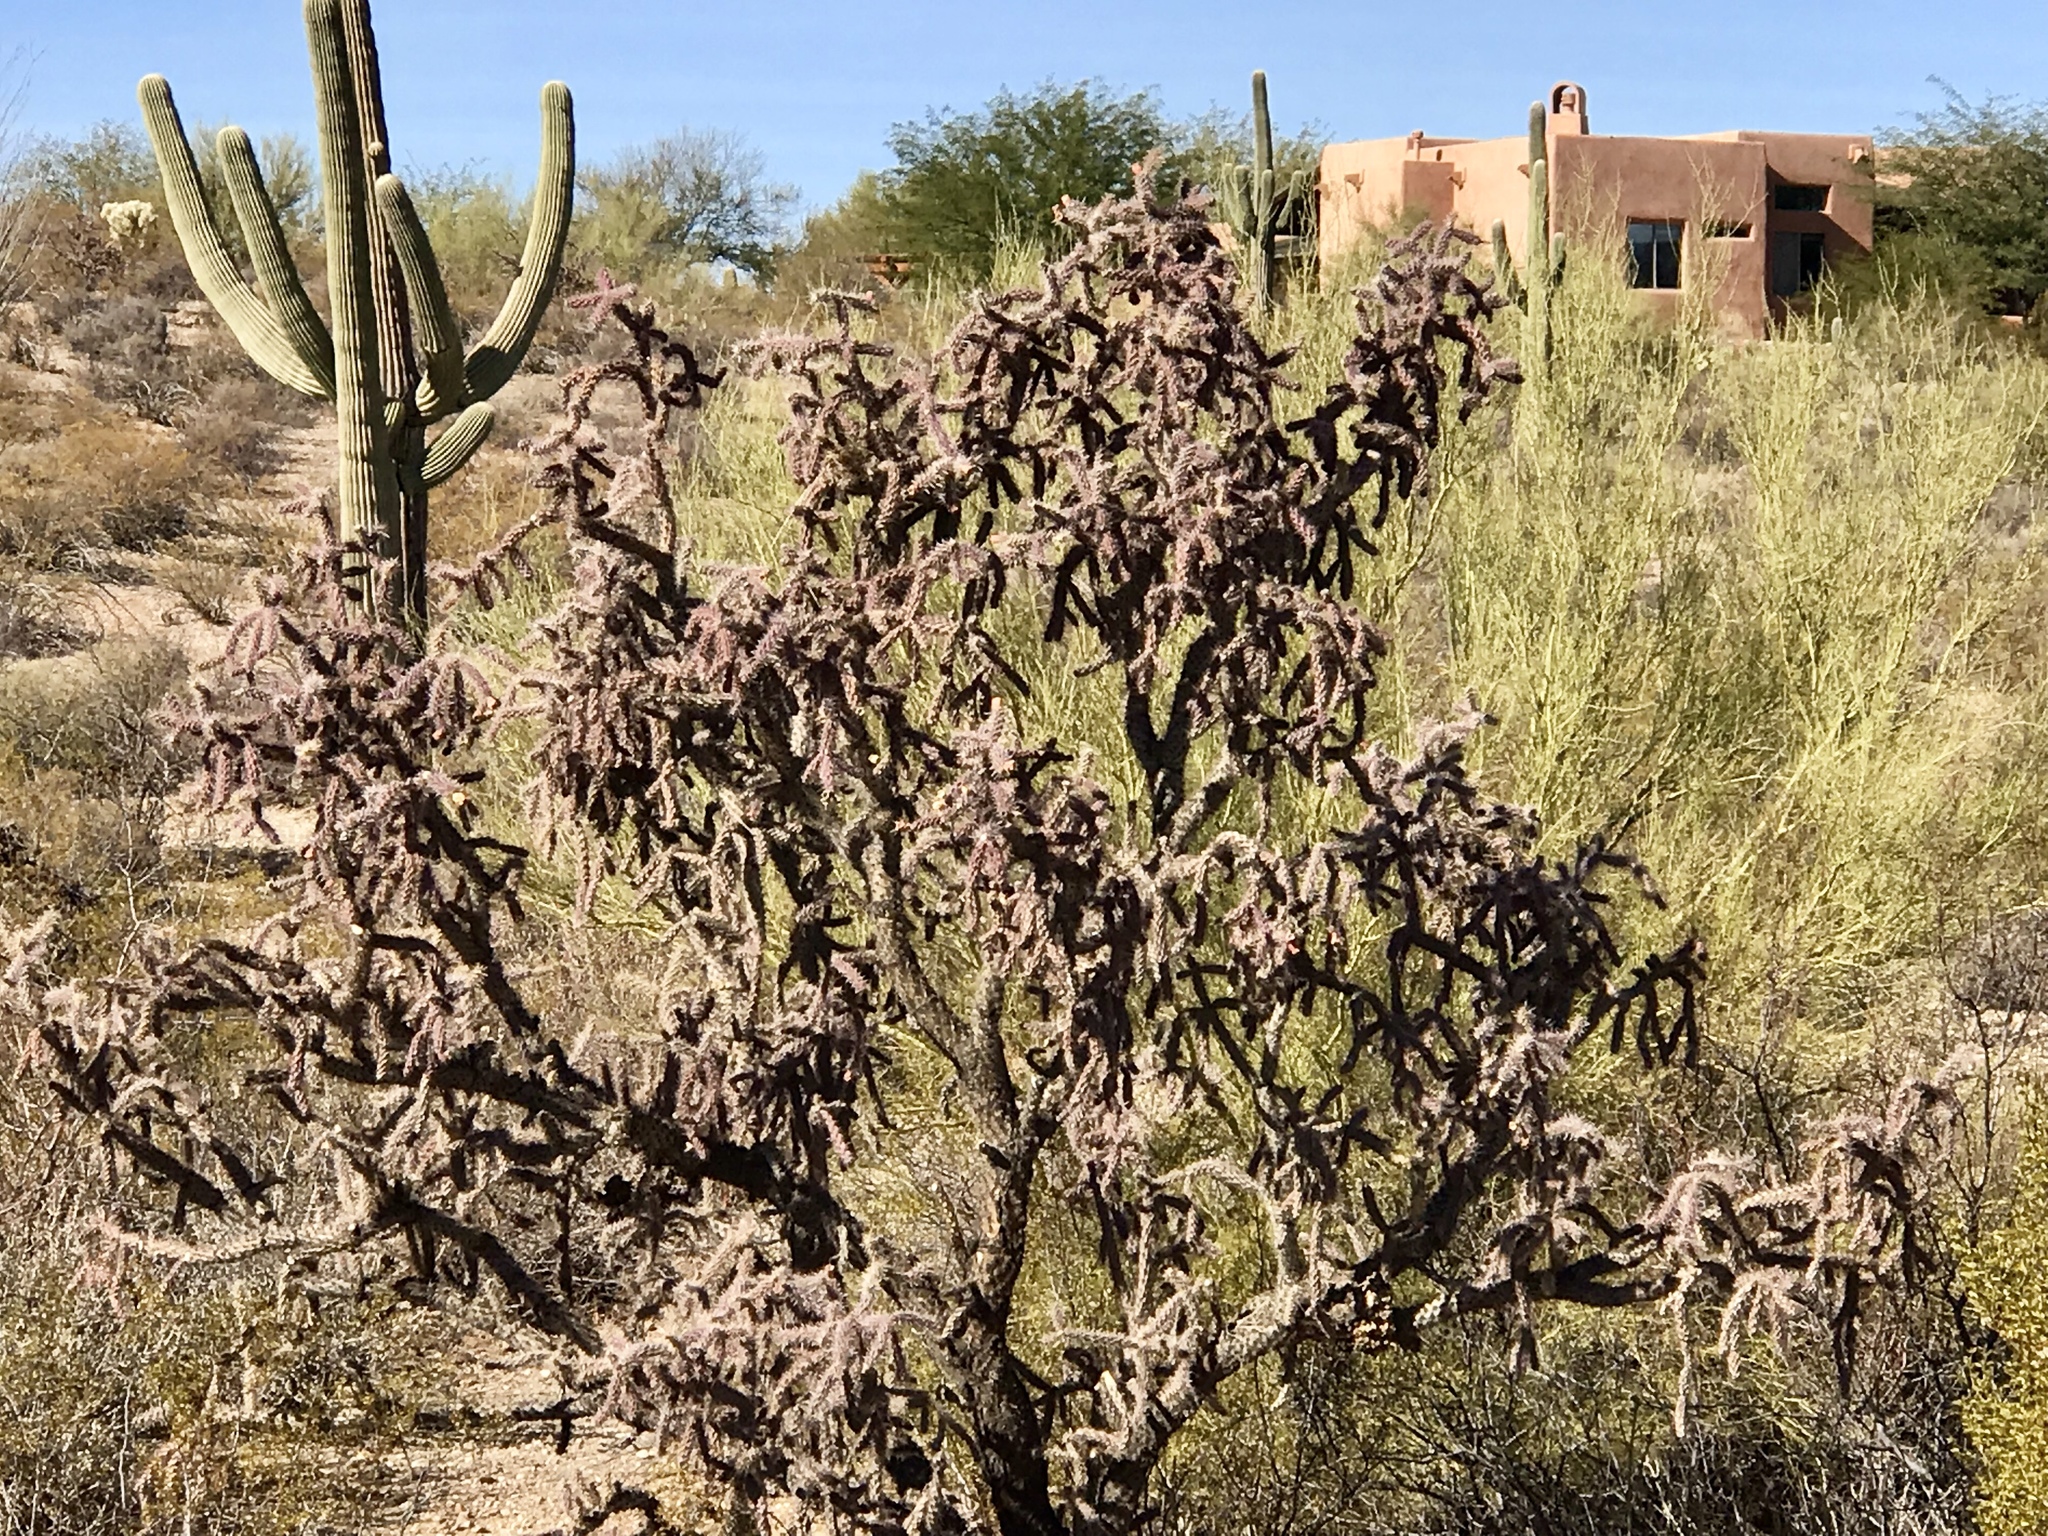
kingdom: Plantae
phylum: Tracheophyta
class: Magnoliopsida
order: Caryophyllales
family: Cactaceae
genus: Cylindropuntia
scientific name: Cylindropuntia thurberi
